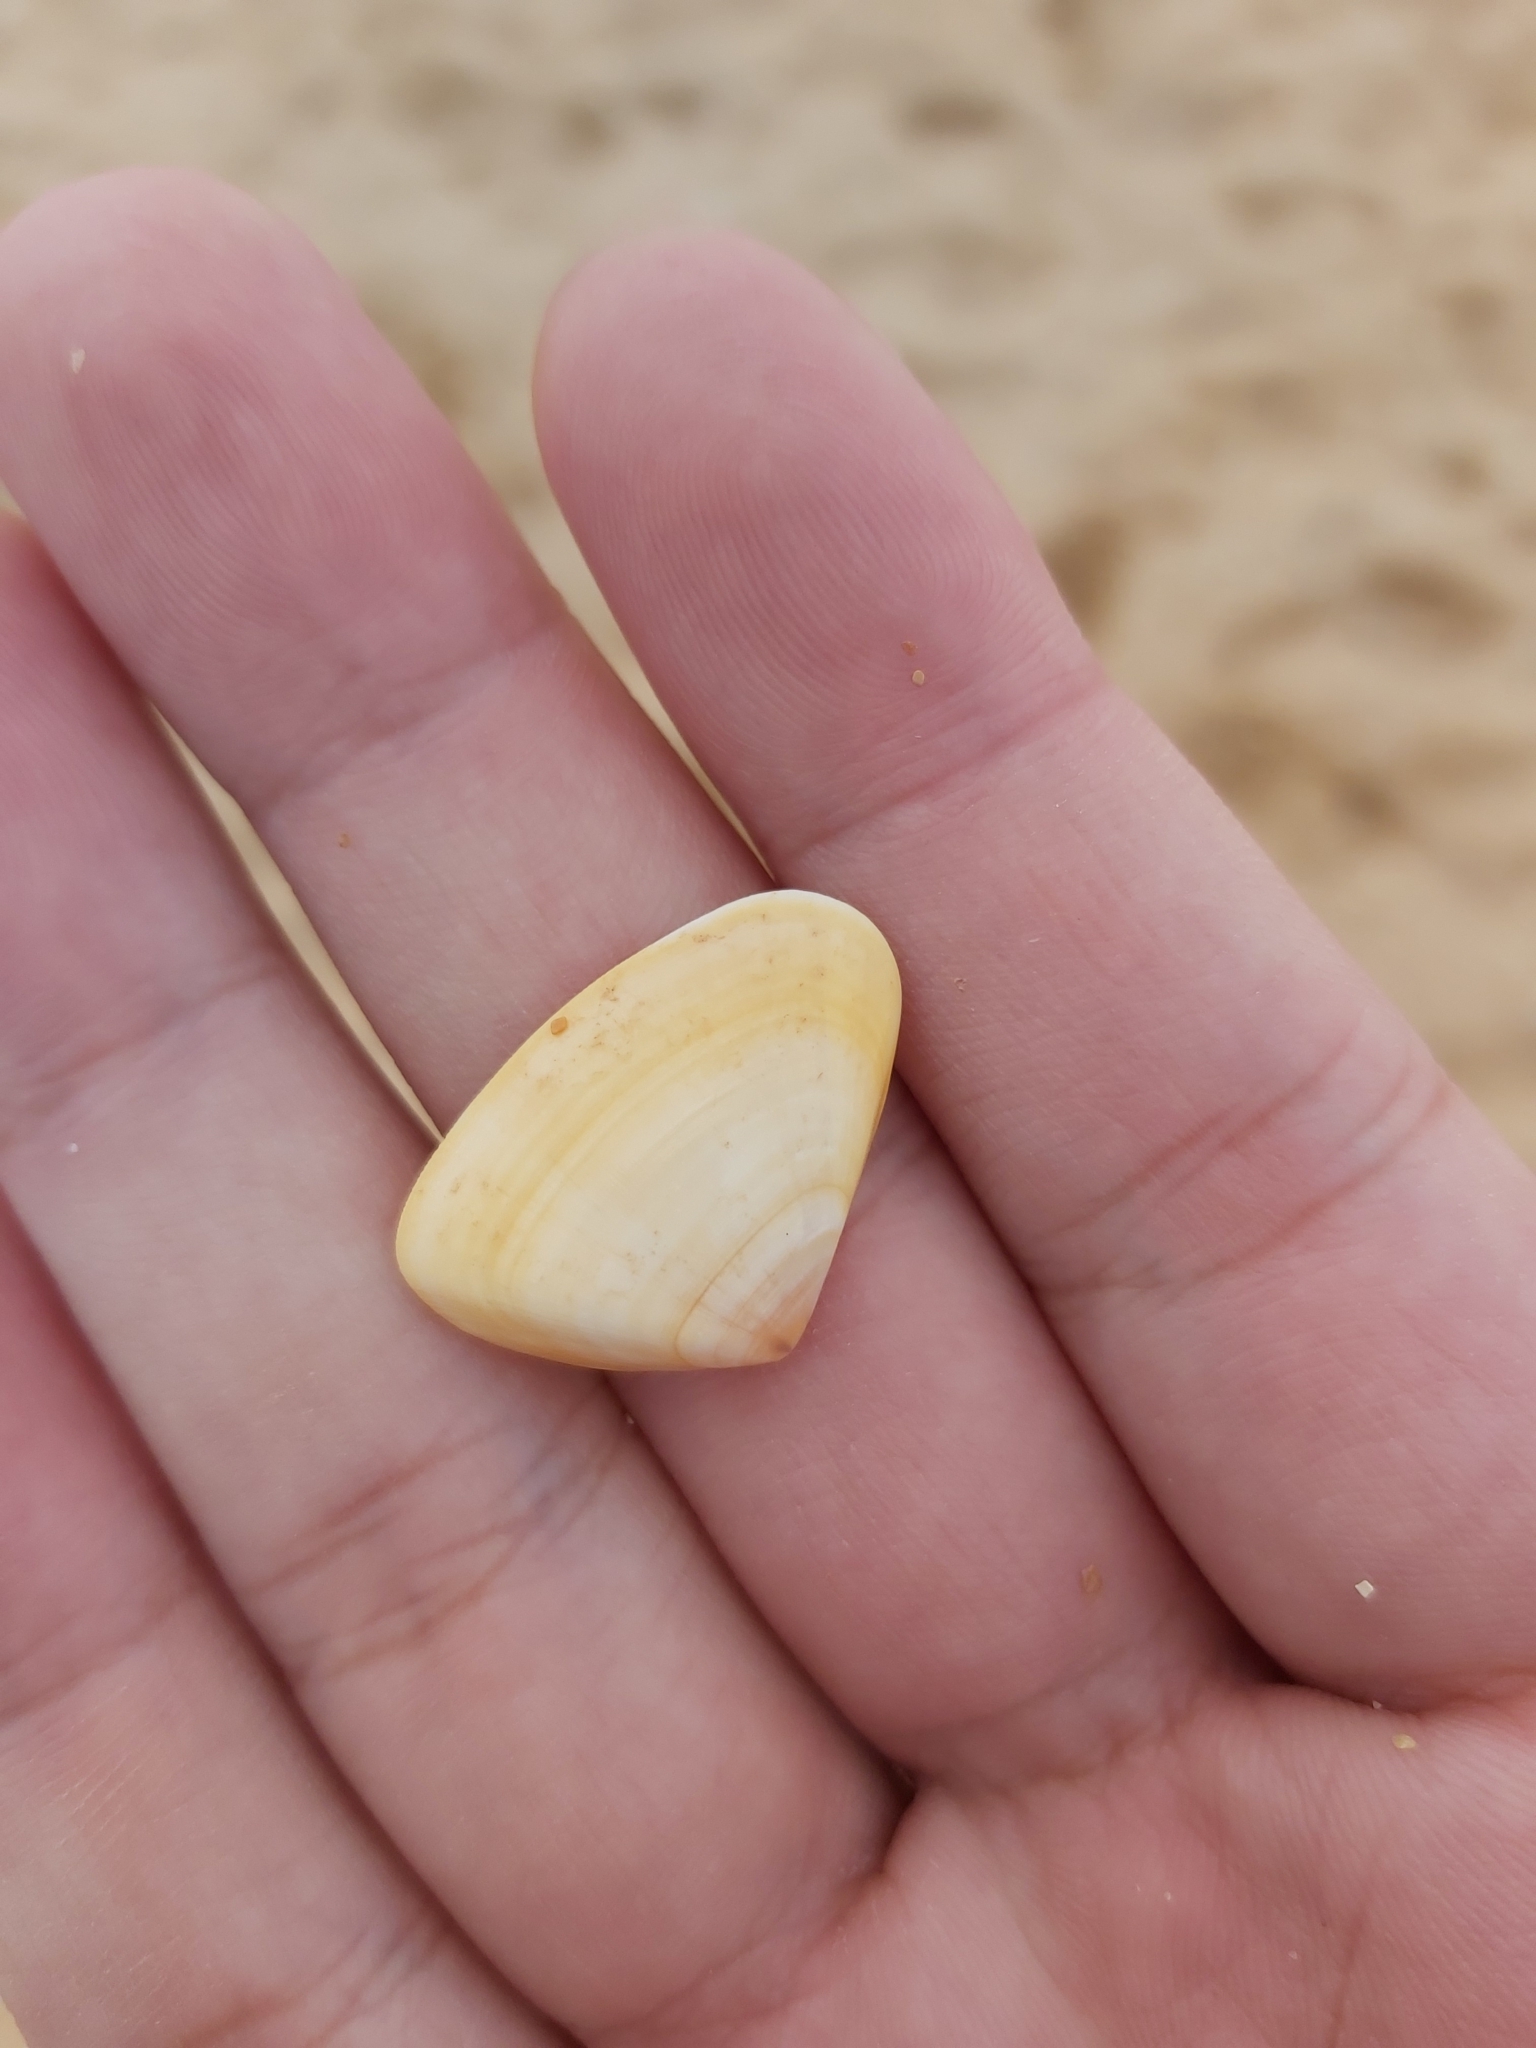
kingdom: Animalia
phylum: Mollusca
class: Bivalvia
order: Cardiida
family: Donacidae
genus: Latona
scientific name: Latona deltoides
